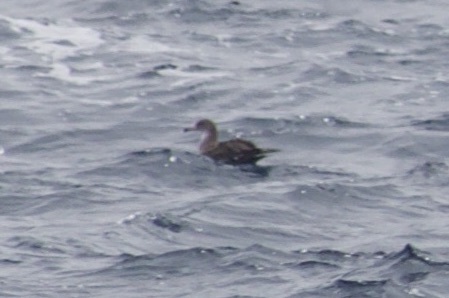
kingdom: Animalia
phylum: Chordata
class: Aves
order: Procellariiformes
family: Procellariidae
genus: Puffinus
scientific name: Puffinus creatopus
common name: Pink-footed shearwater
